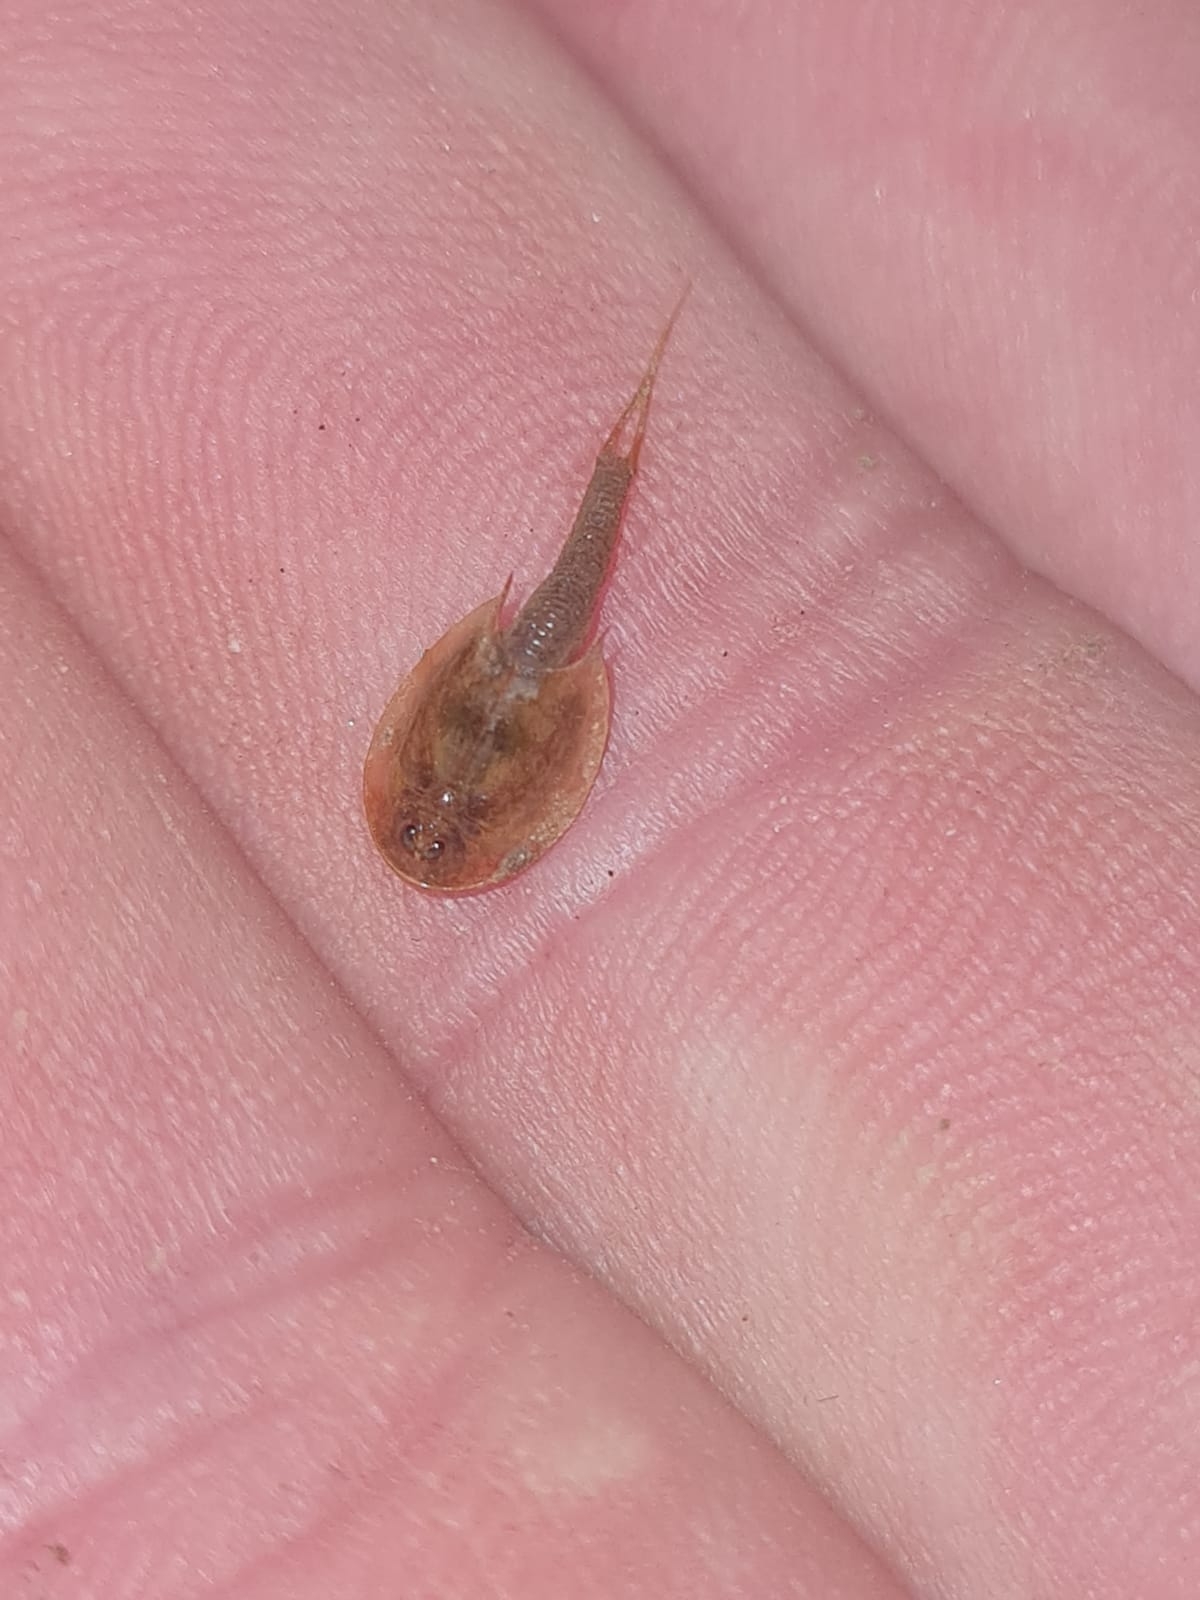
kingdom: Animalia
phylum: Arthropoda
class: Branchiopoda
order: Notostraca
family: Triopsidae
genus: Triops
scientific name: Triops granarius
